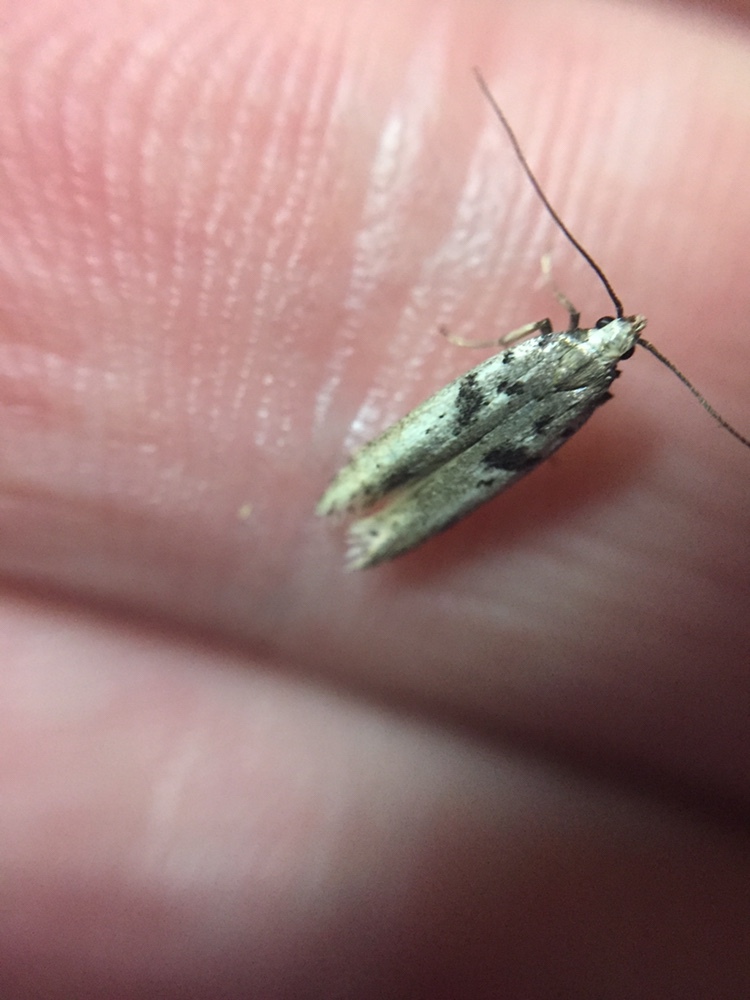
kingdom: Animalia
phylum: Arthropoda
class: Insecta
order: Lepidoptera
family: Gelechiidae
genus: Aristotelia
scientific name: Aristotelia paradesma
